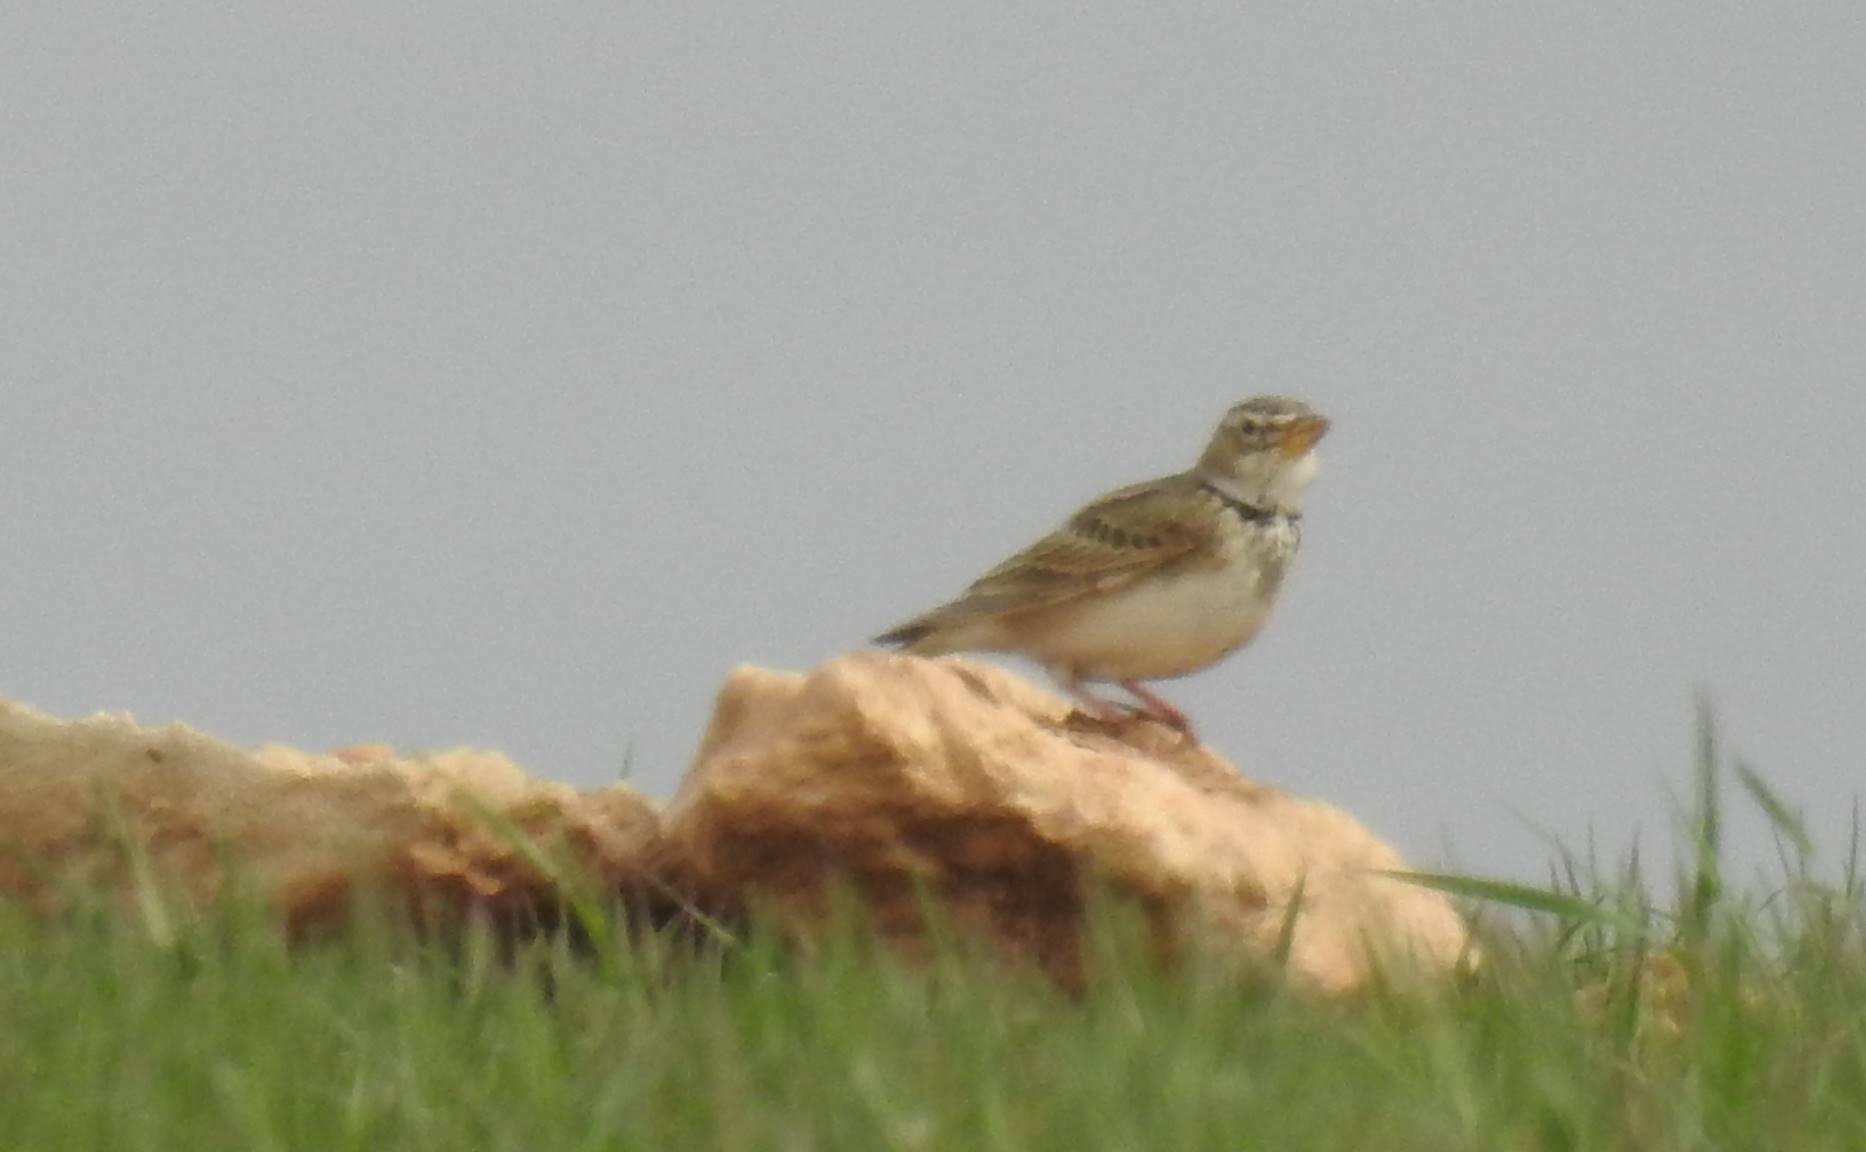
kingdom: Animalia
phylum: Chordata
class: Aves
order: Passeriformes
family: Alaudidae
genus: Melanocorypha
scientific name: Melanocorypha calandra
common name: Calandra lark
